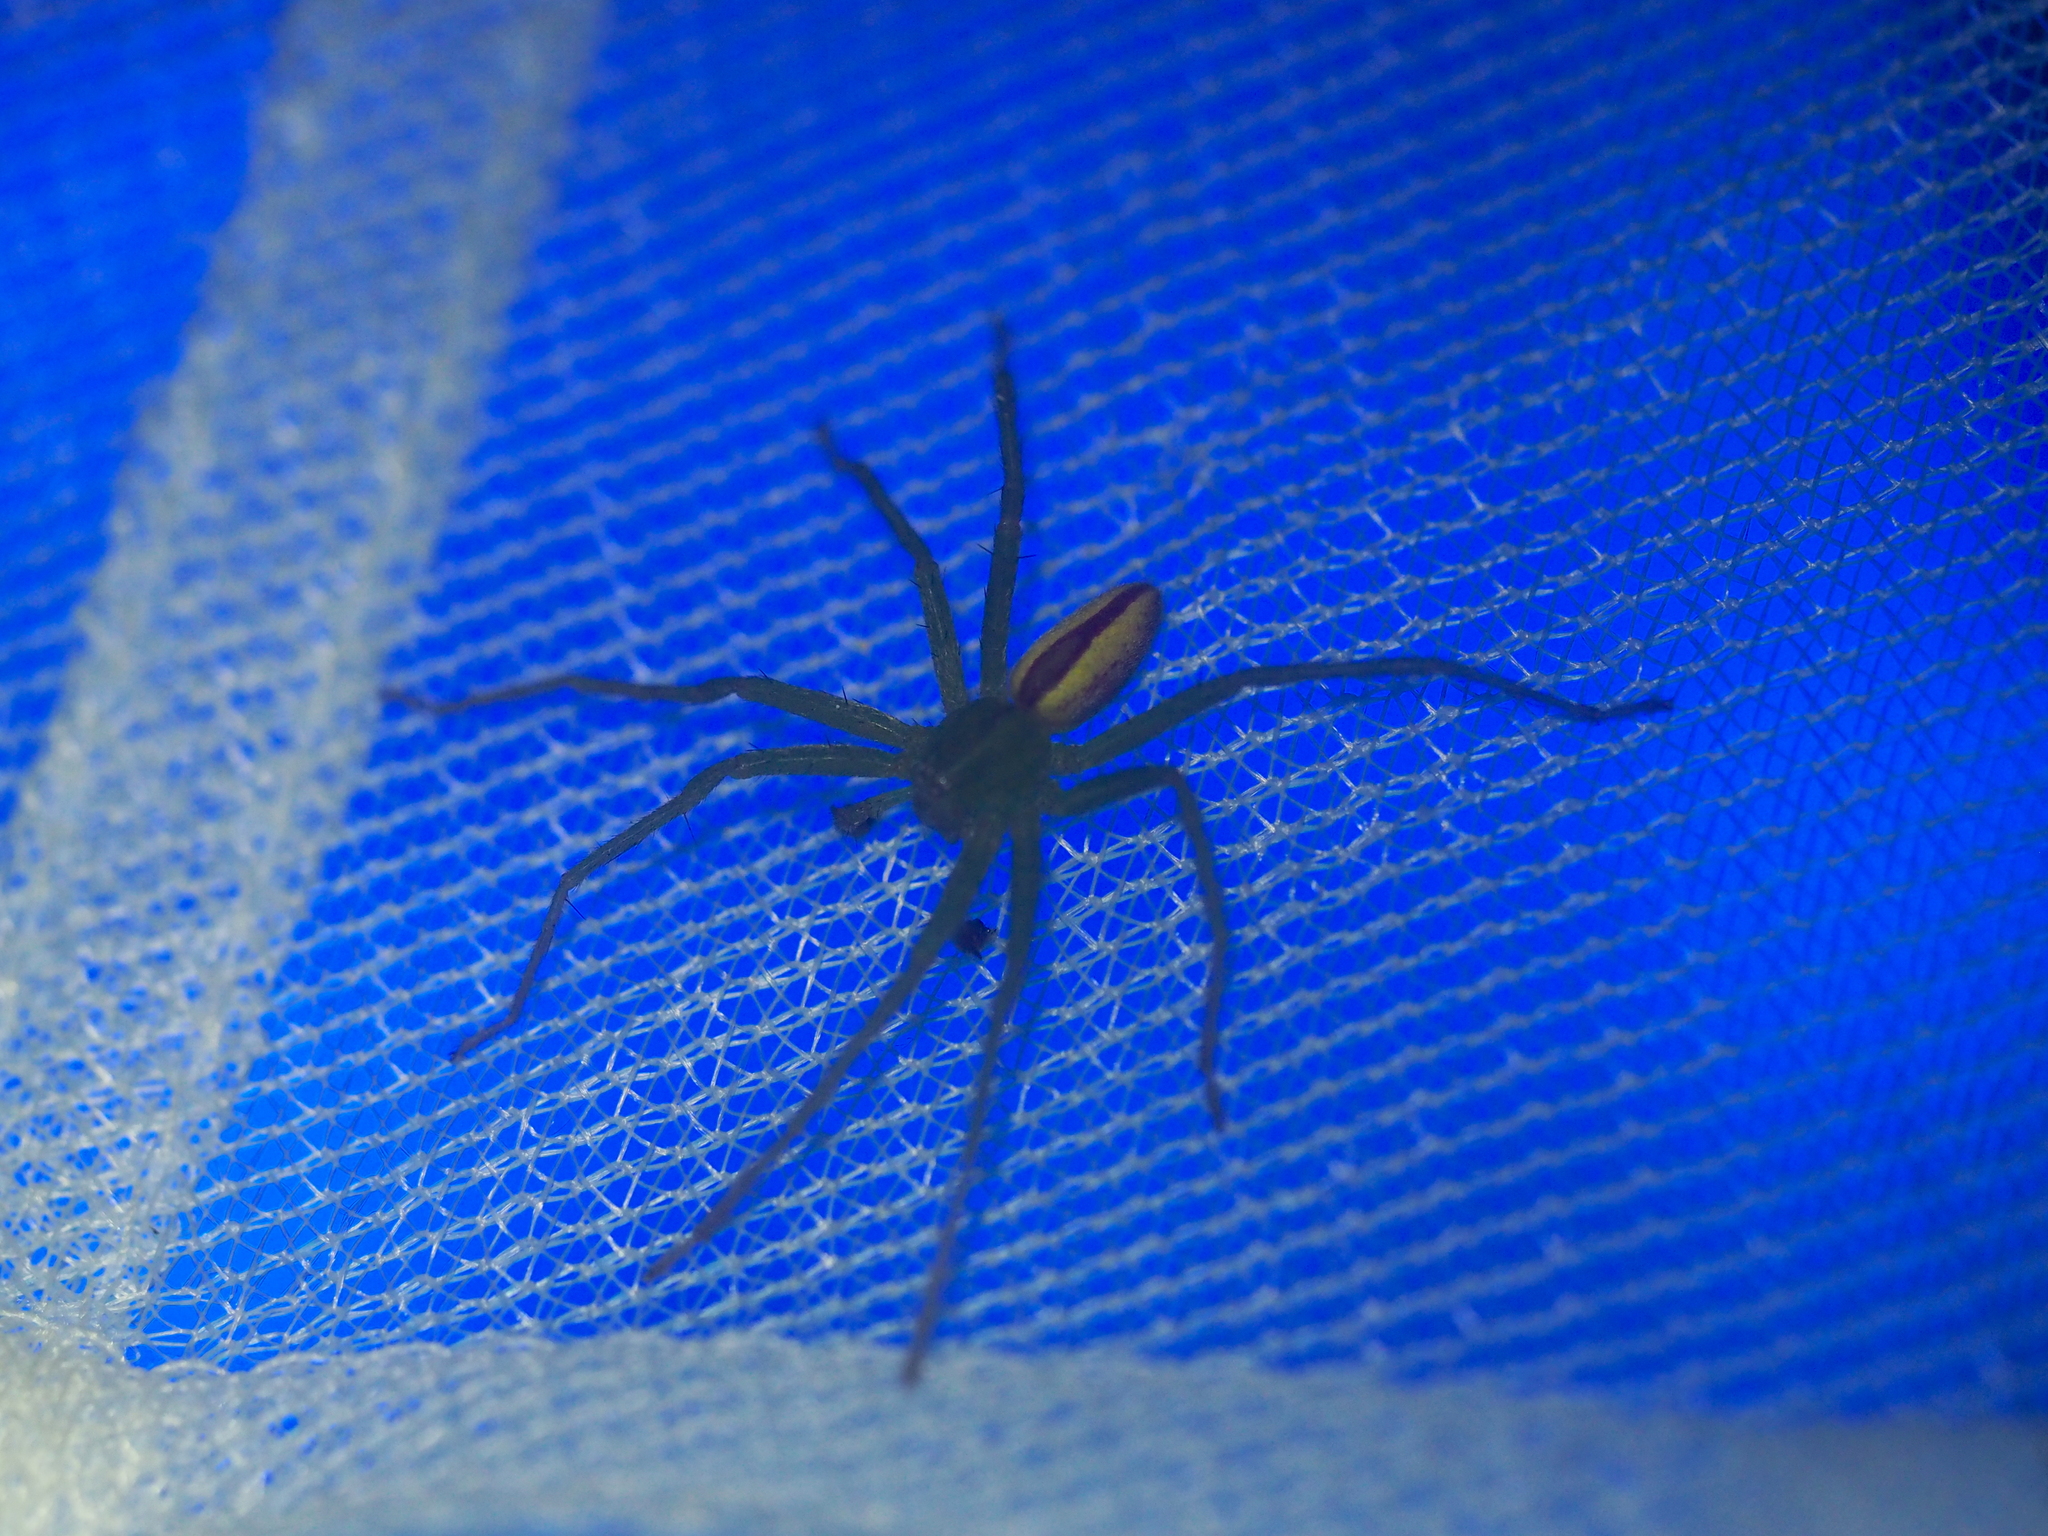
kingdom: Animalia
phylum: Arthropoda
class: Arachnida
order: Araneae
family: Sparassidae
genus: Micrommata
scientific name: Micrommata virescens
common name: Green spider
